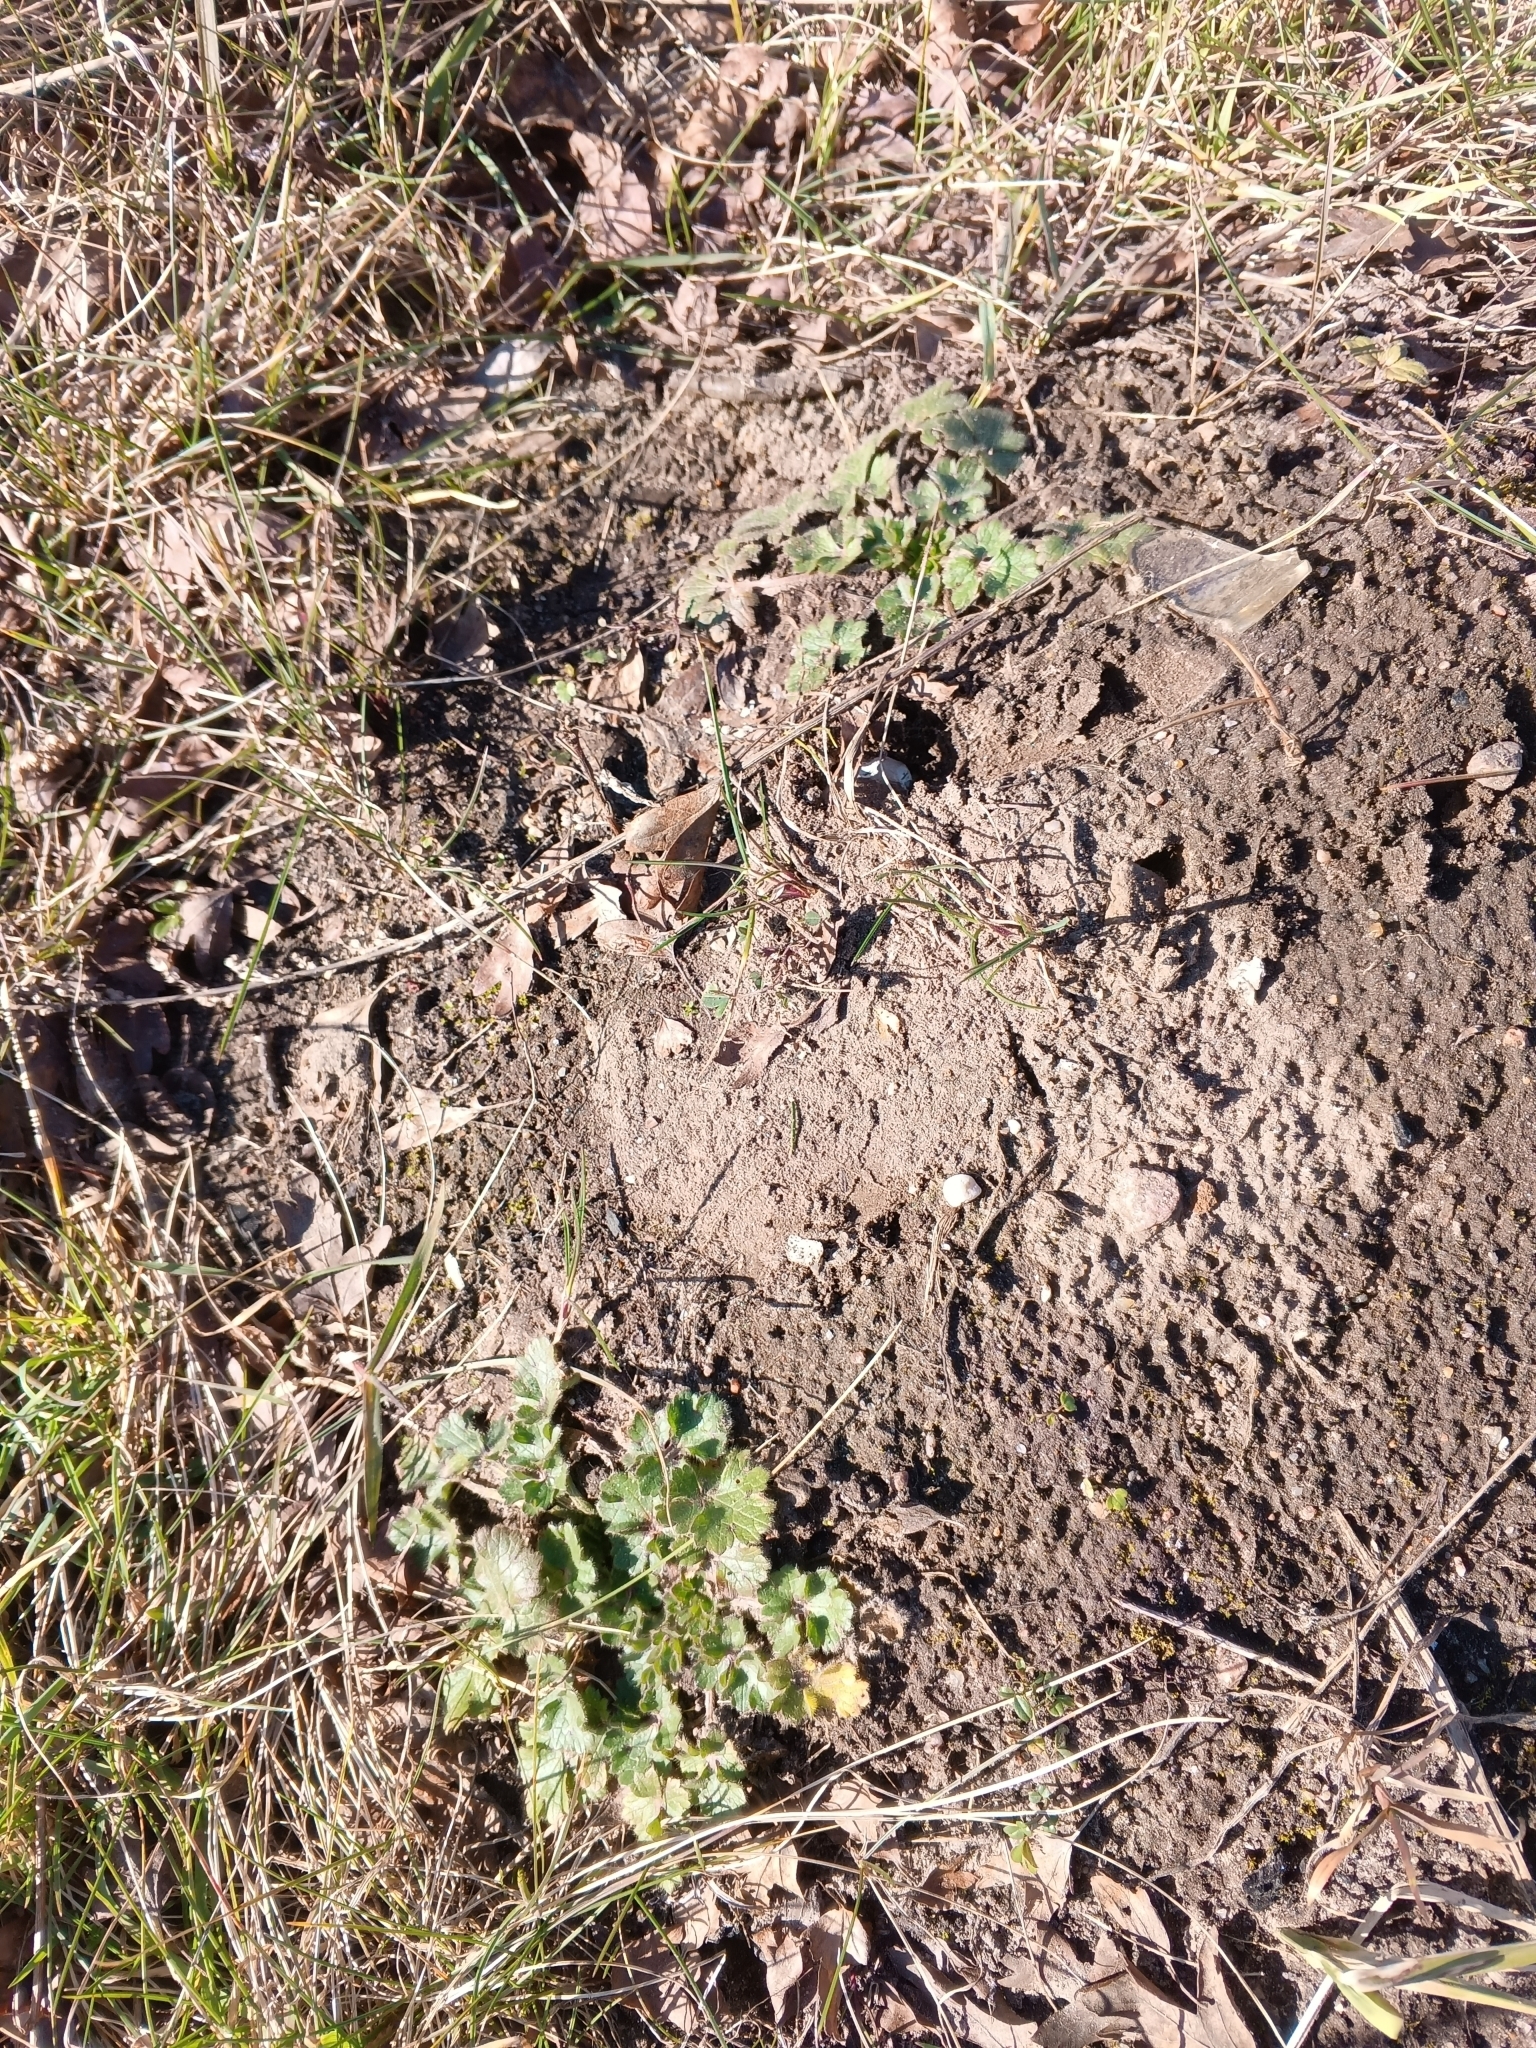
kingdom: Plantae
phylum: Tracheophyta
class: Magnoliopsida
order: Ranunculales
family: Ranunculaceae
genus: Ranunculus
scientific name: Ranunculus bulbosus
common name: Bulbous buttercup
